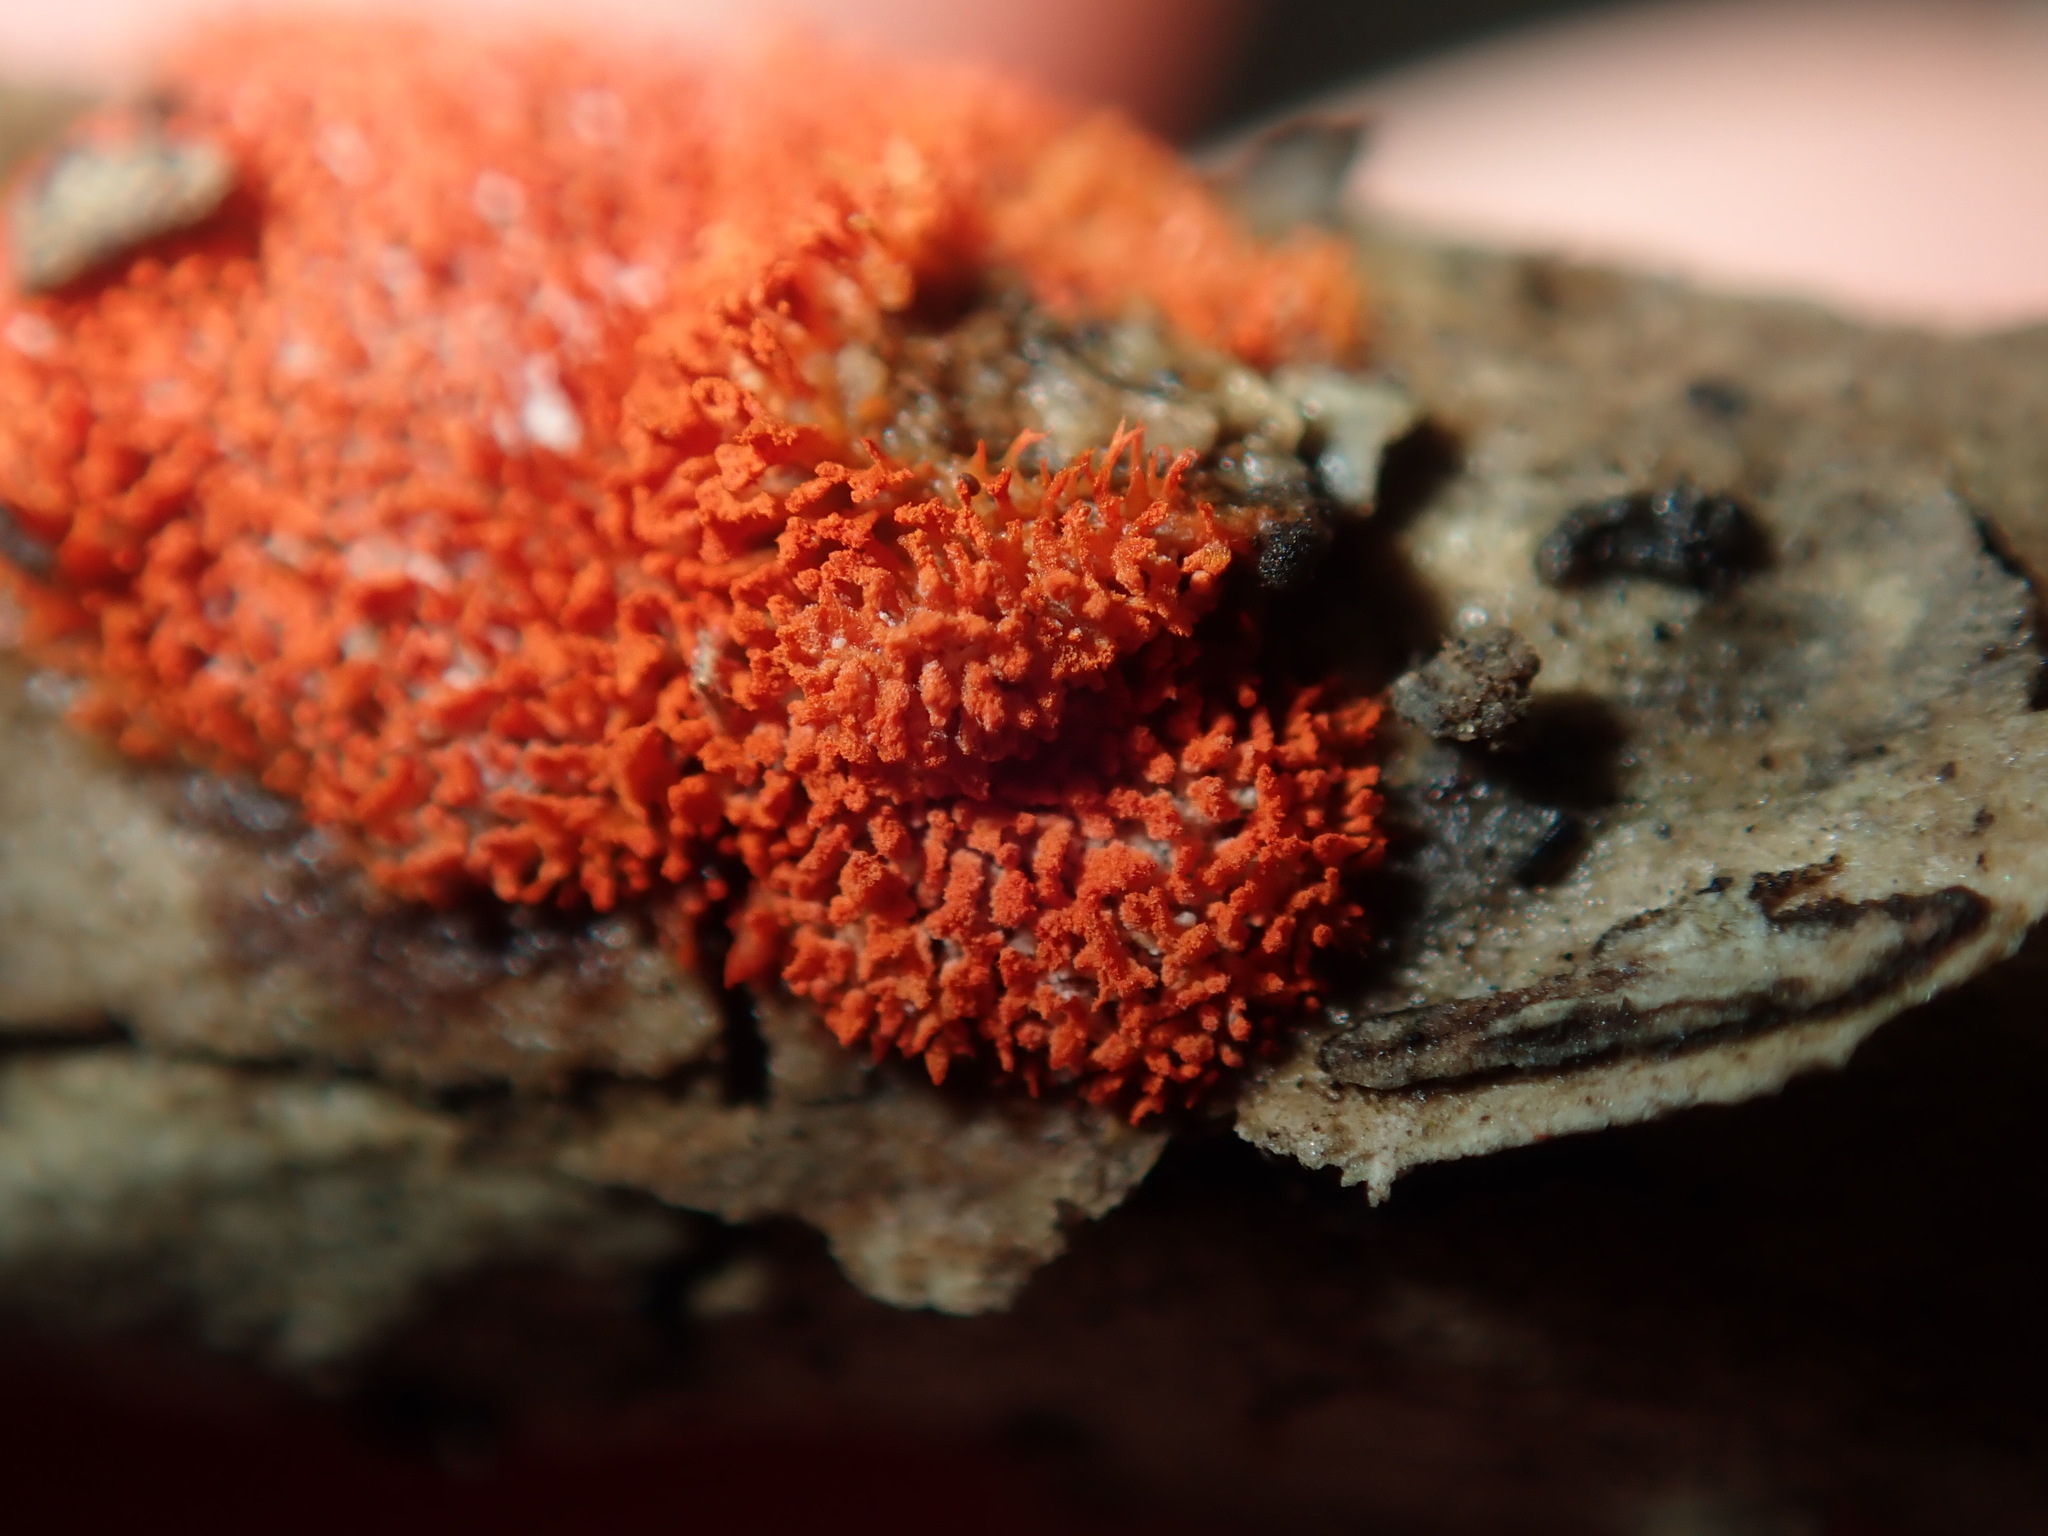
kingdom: Protozoa
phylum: Mycetozoa
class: Myxomycetes
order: Cribrariales
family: Tubiferaceae
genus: Tubifera
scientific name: Tubifera ferruginosa
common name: Red raspberry slime mold
